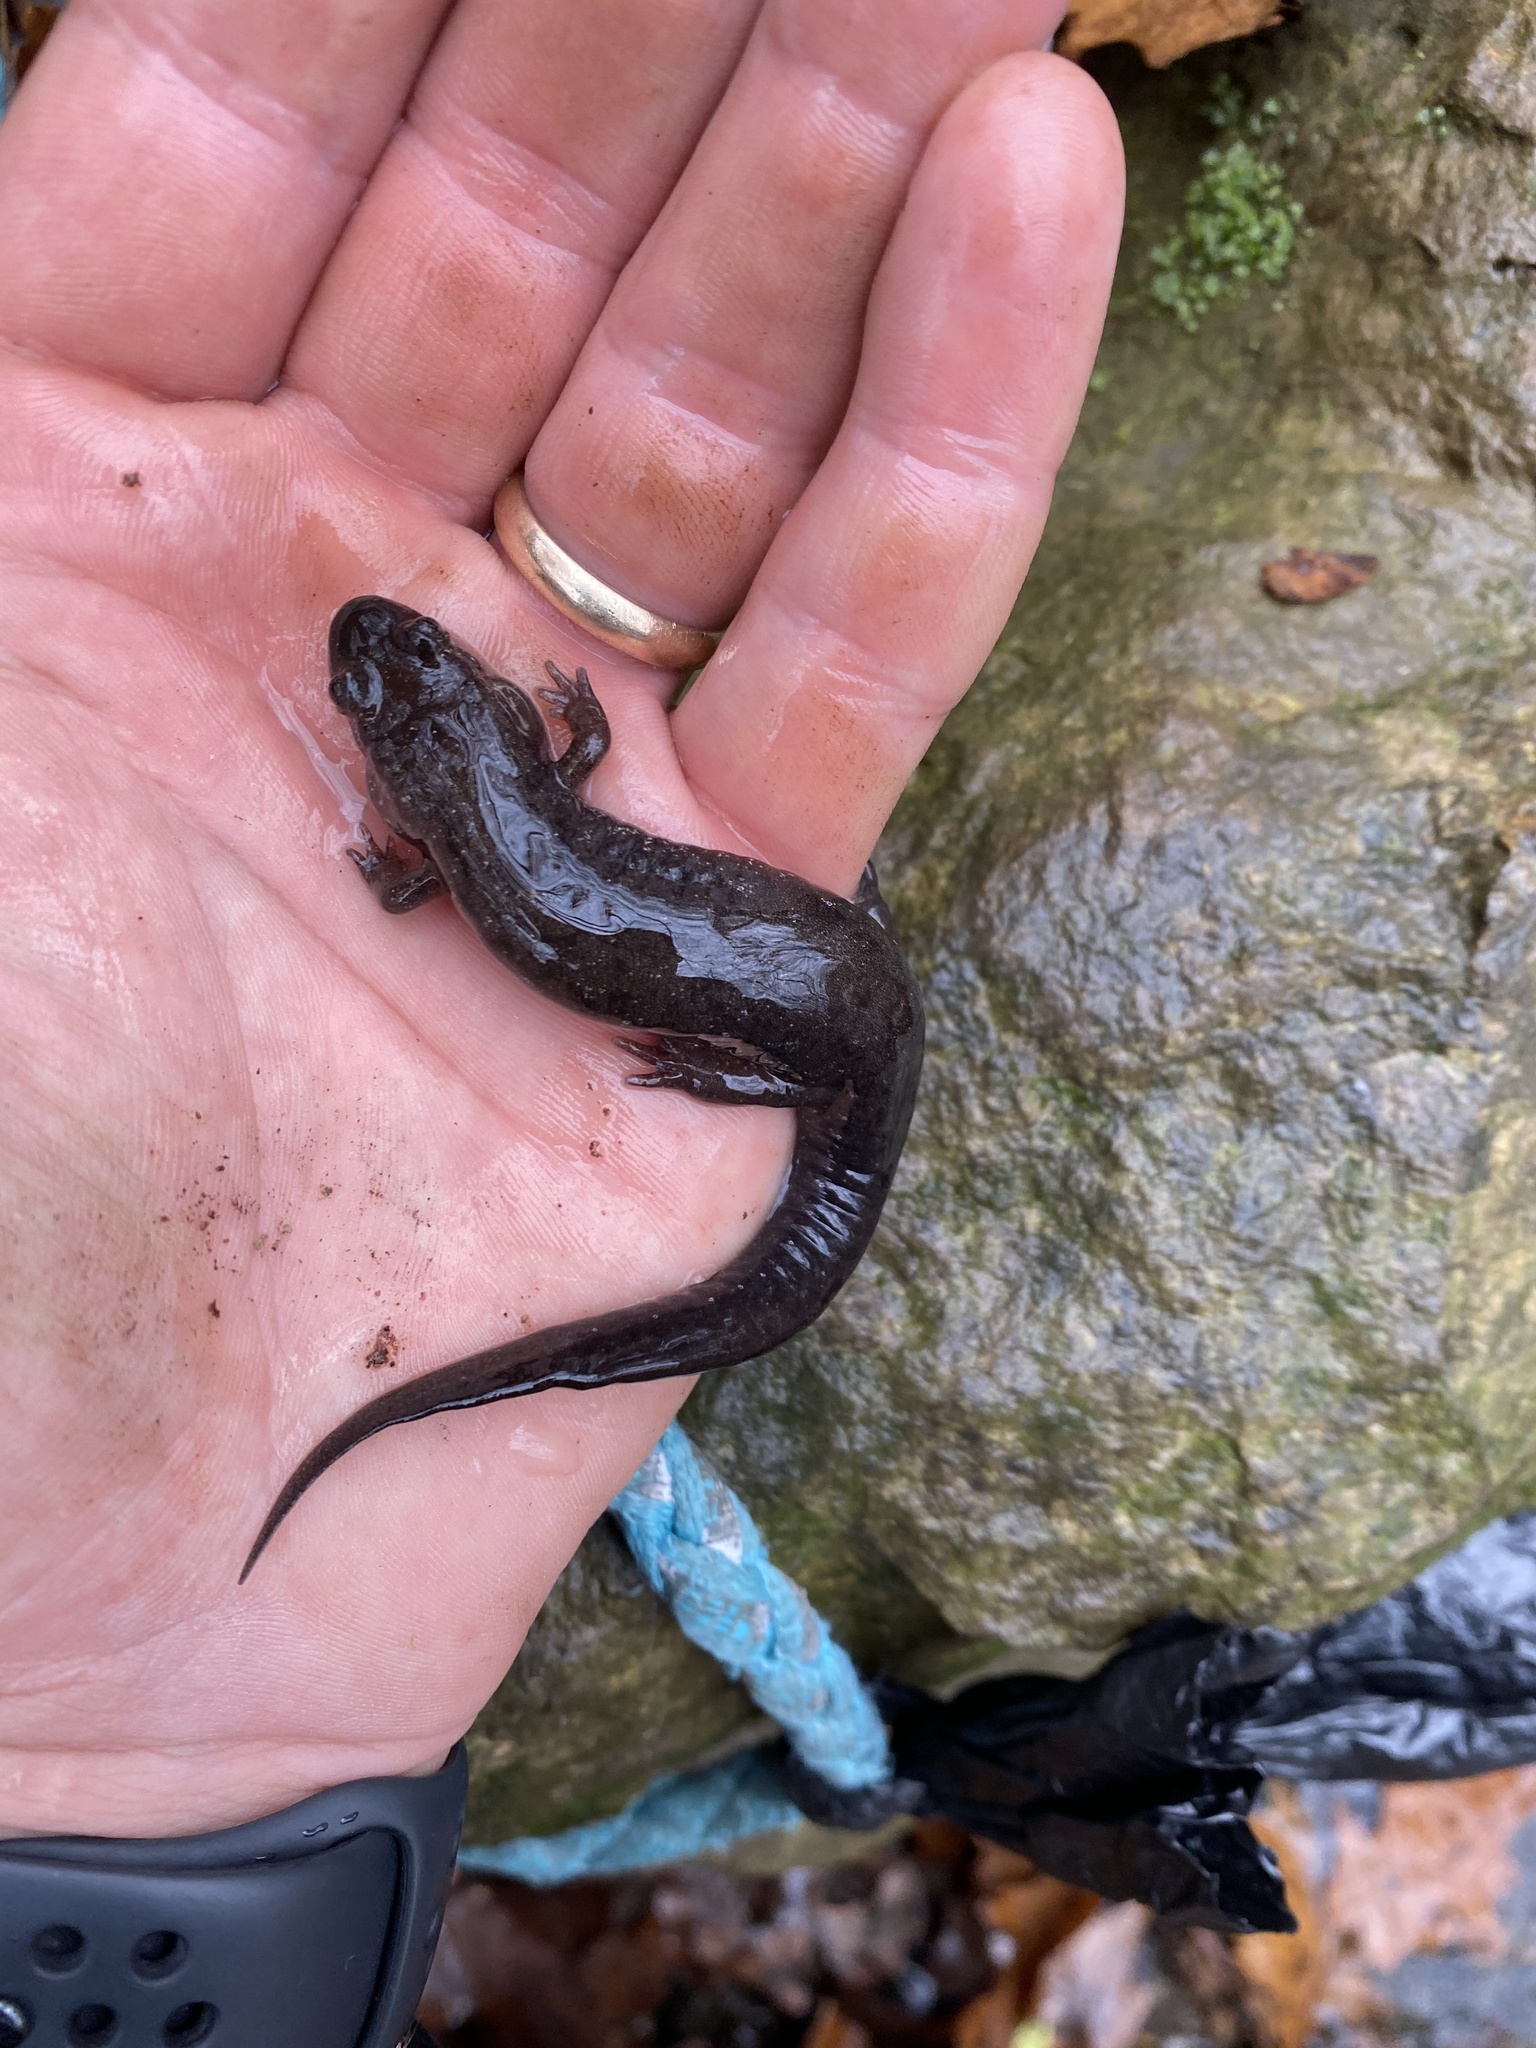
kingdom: Animalia
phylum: Chordata
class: Amphibia
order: Caudata
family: Plethodontidae
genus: Desmognathus
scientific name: Desmognathus conanti
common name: Spotted dusky salamander
